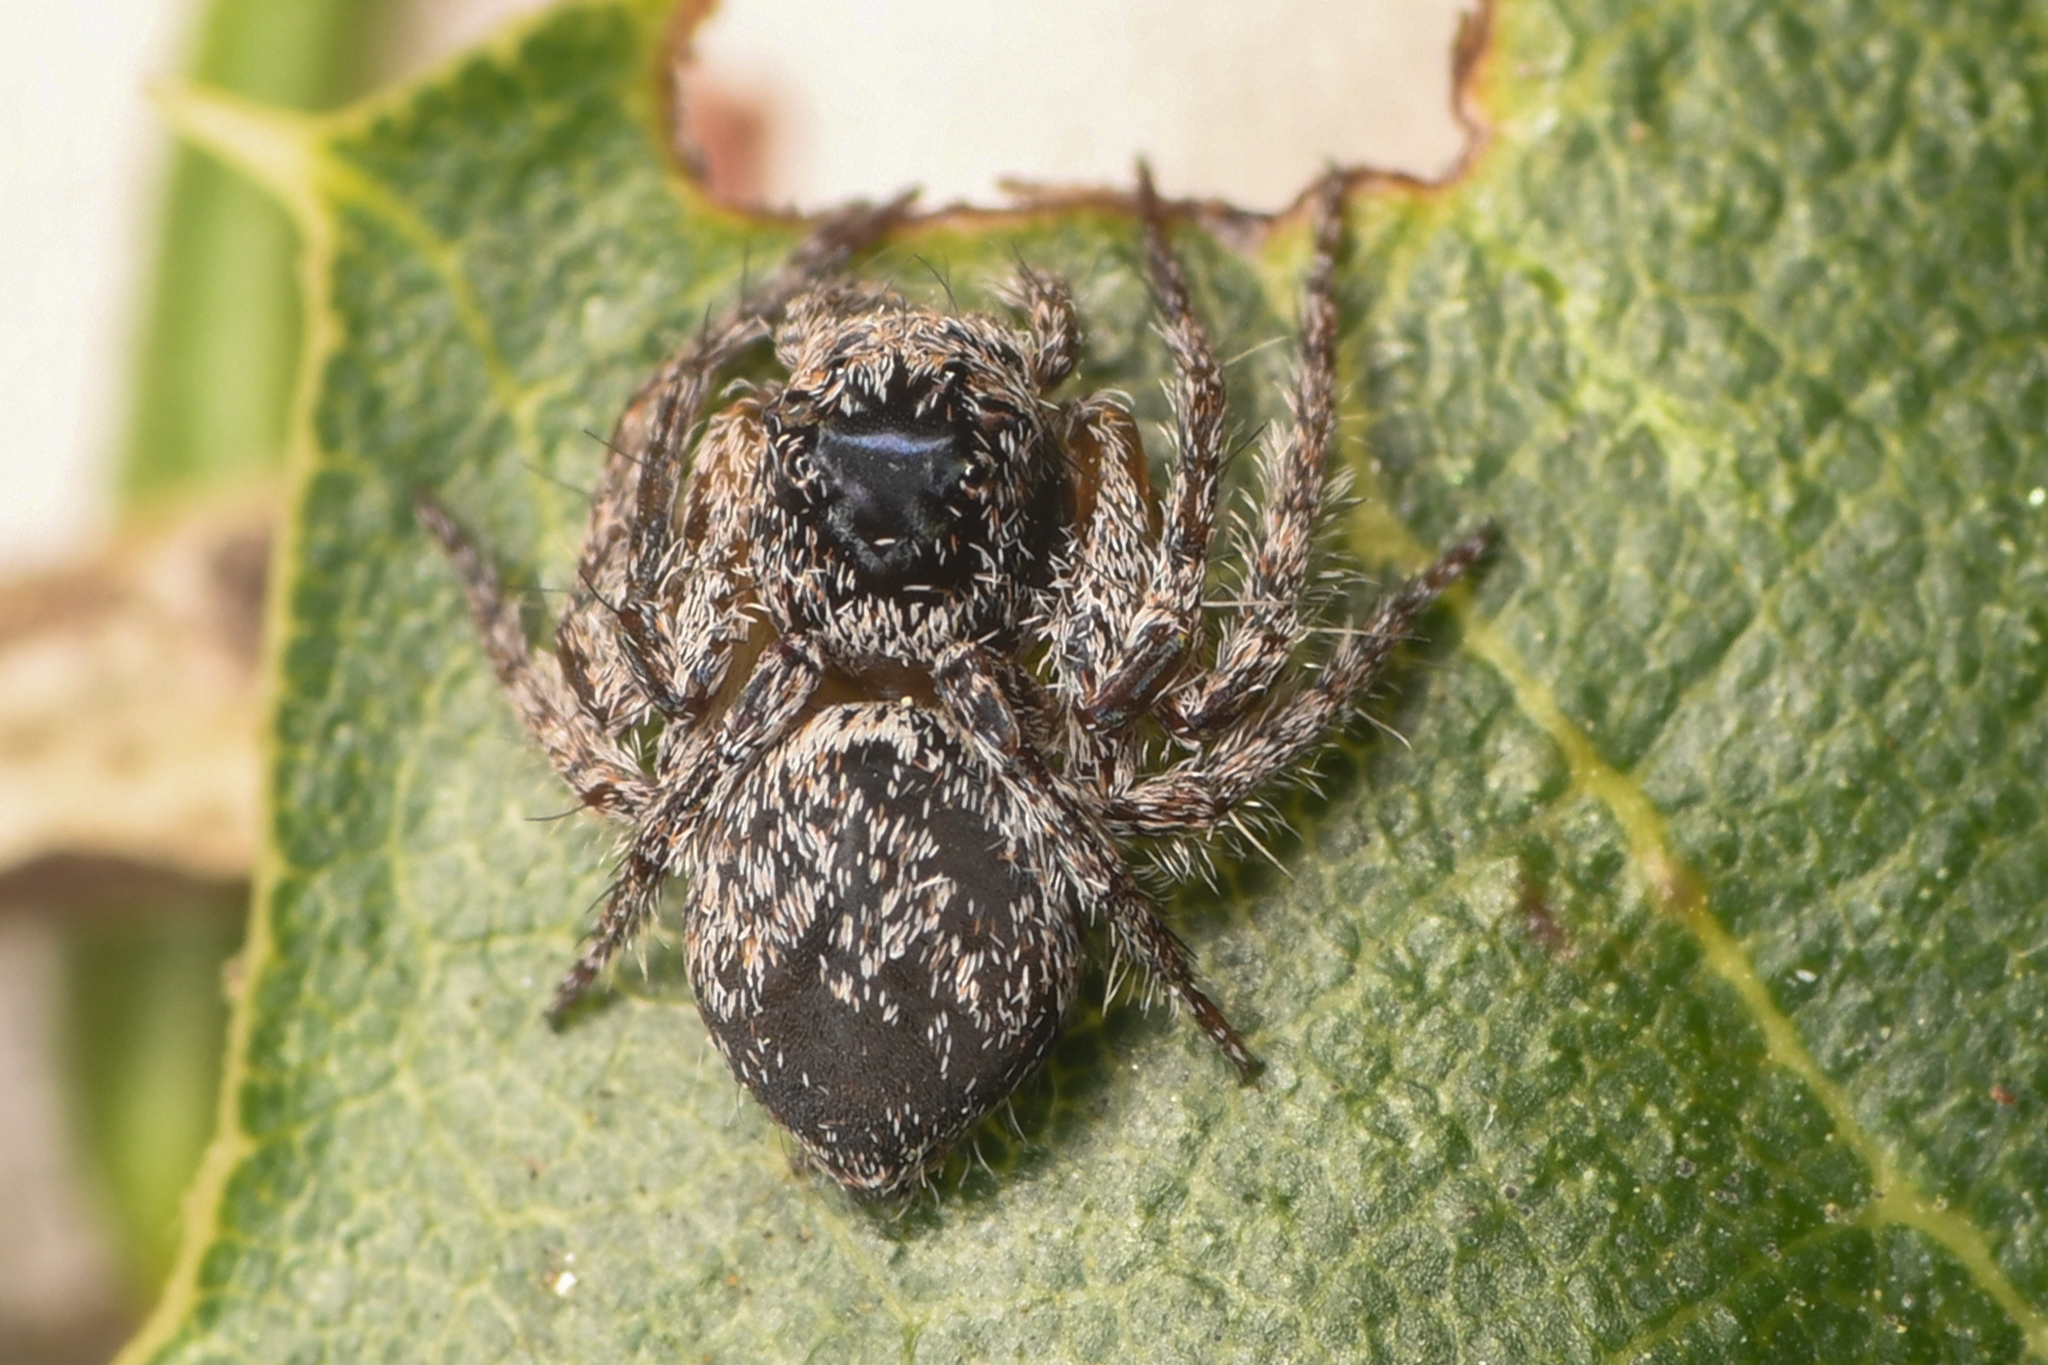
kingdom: Animalia
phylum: Arthropoda
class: Arachnida
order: Araneae
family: Oxyopidae
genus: Hamataliwa
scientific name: Hamataliwa grisea
